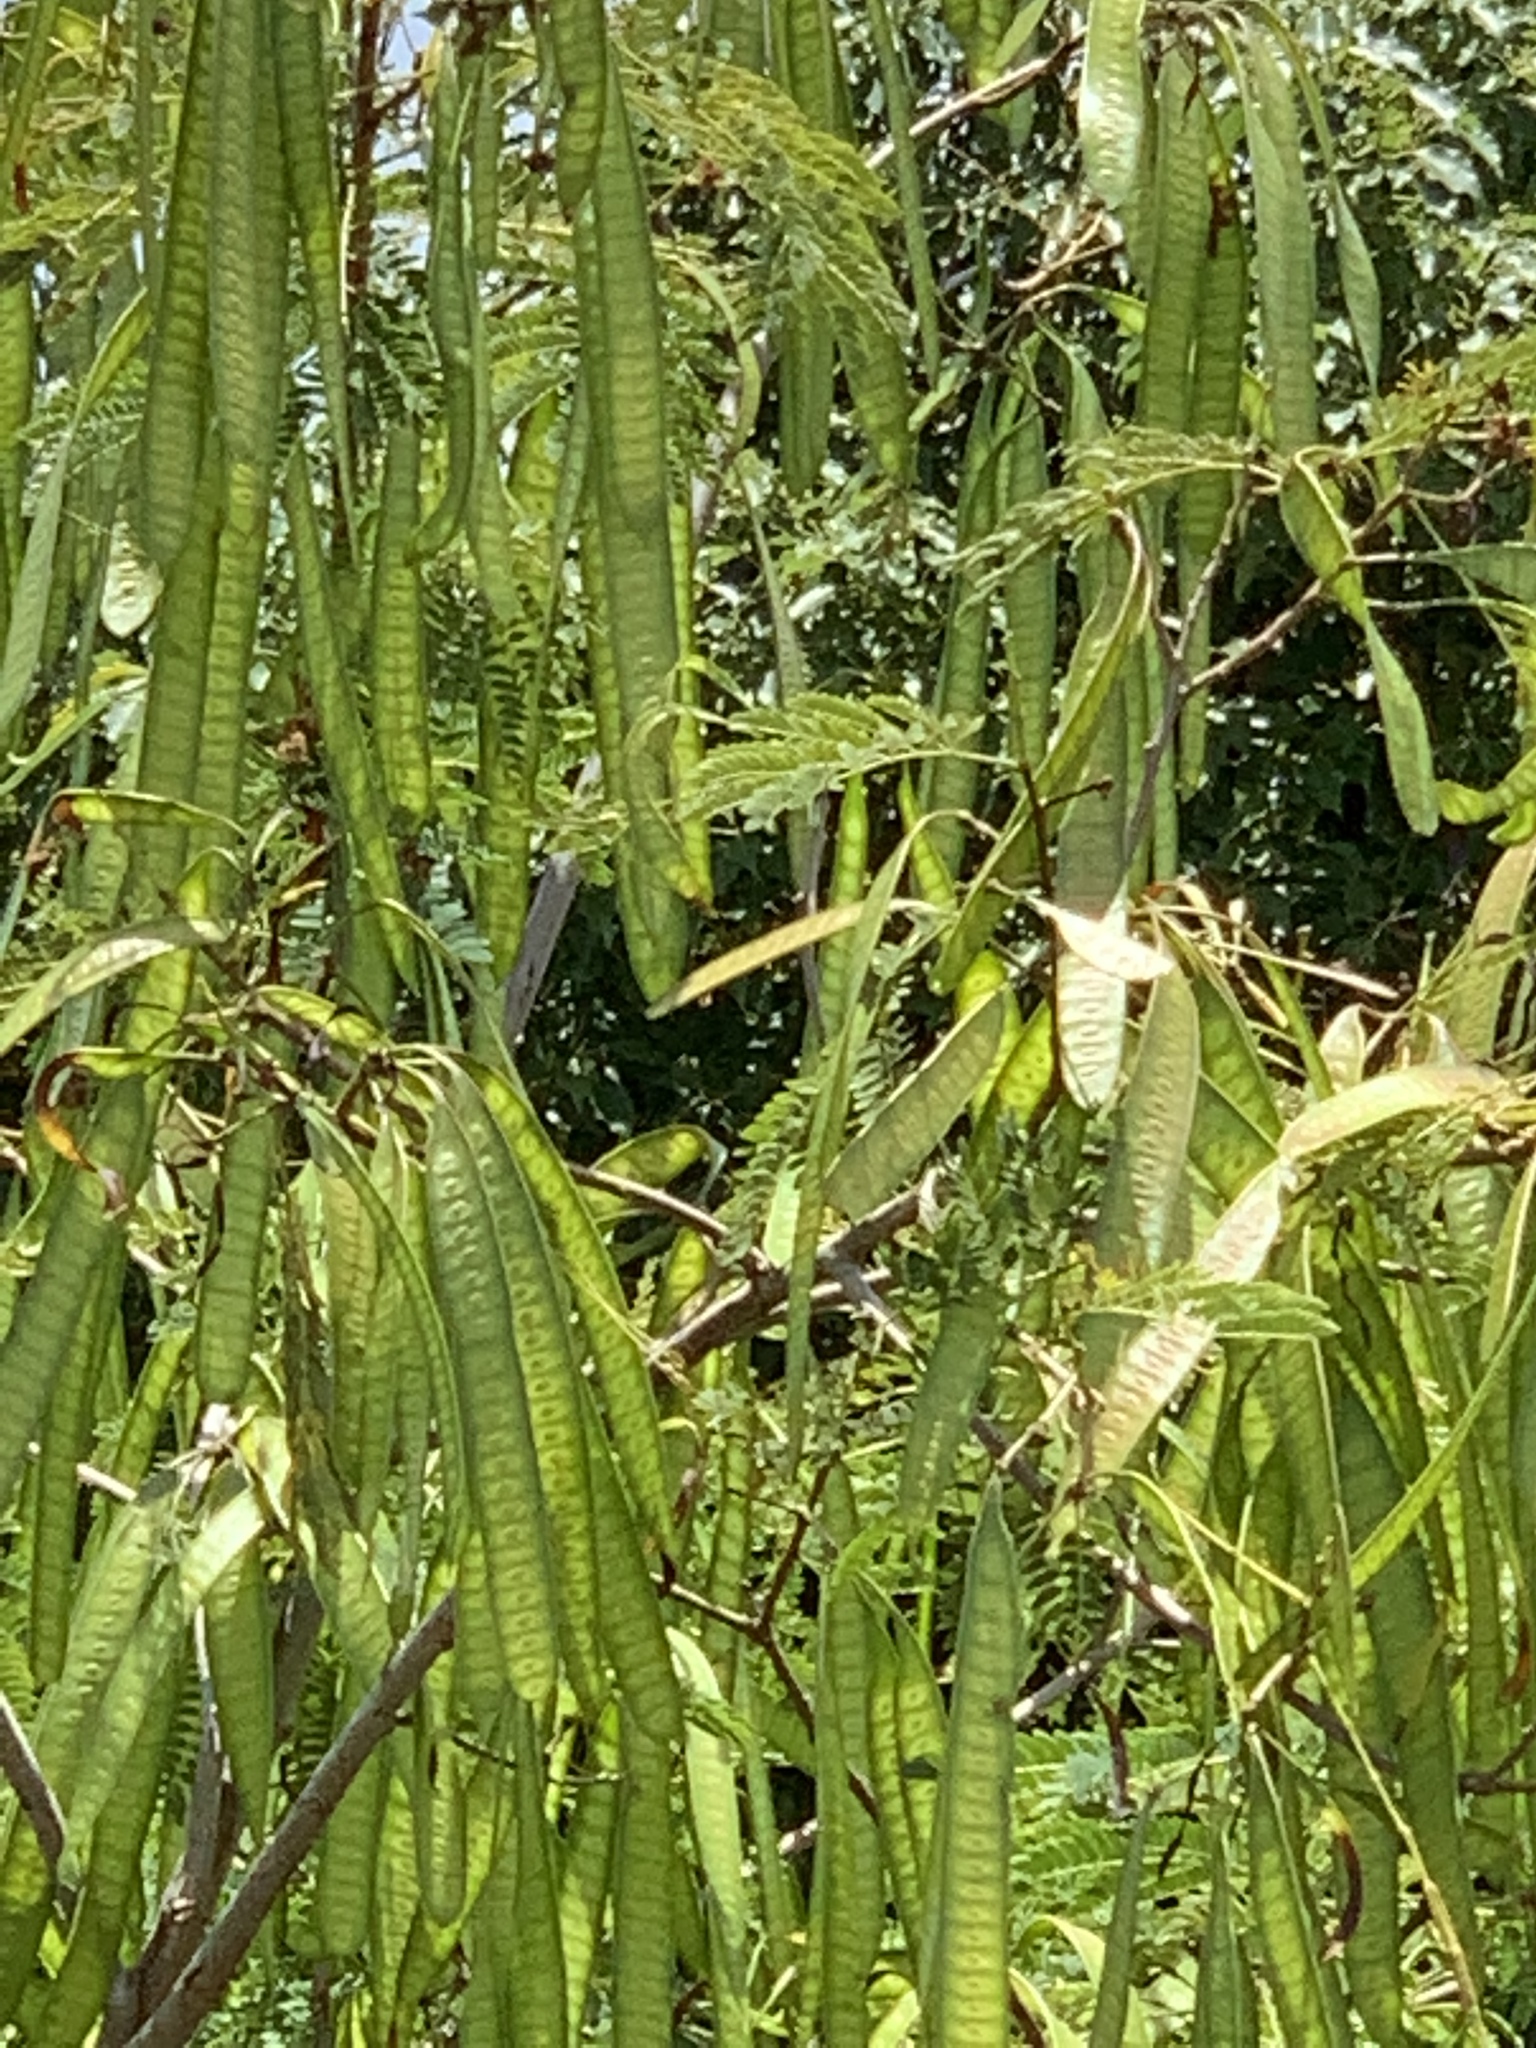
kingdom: Plantae
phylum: Tracheophyta
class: Magnoliopsida
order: Fabales
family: Fabaceae
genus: Leucaena
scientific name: Leucaena leucocephala
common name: White leadtree
